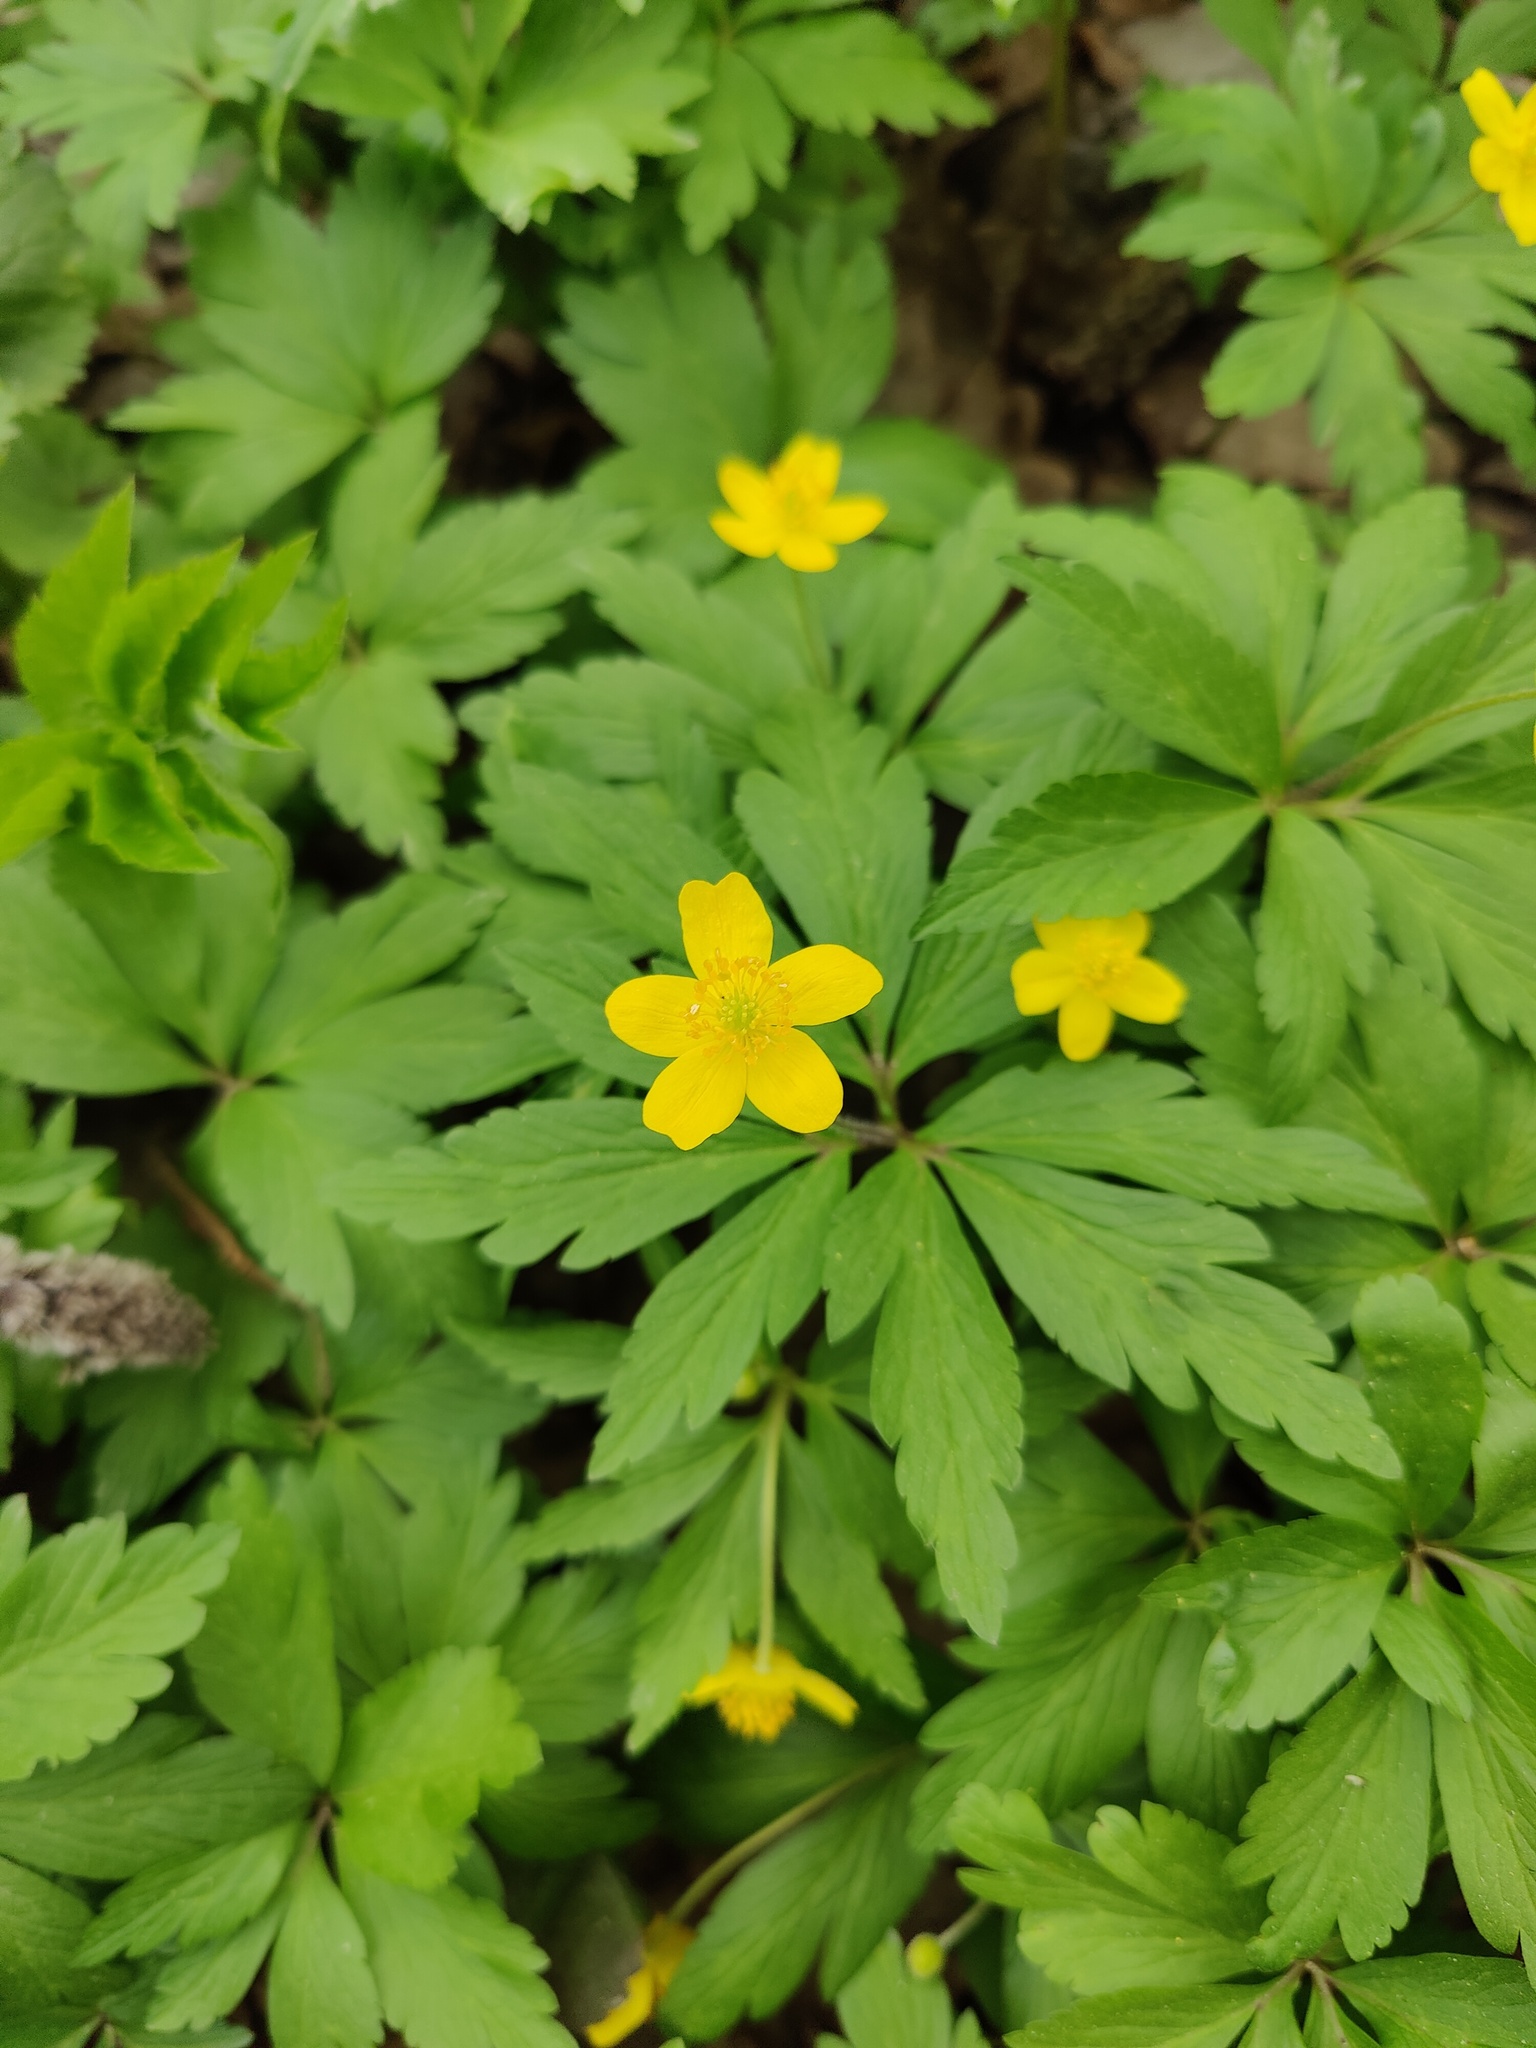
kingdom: Plantae
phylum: Tracheophyta
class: Magnoliopsida
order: Ranunculales
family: Ranunculaceae
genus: Anemone
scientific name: Anemone ranunculoides
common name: Yellow anemone
